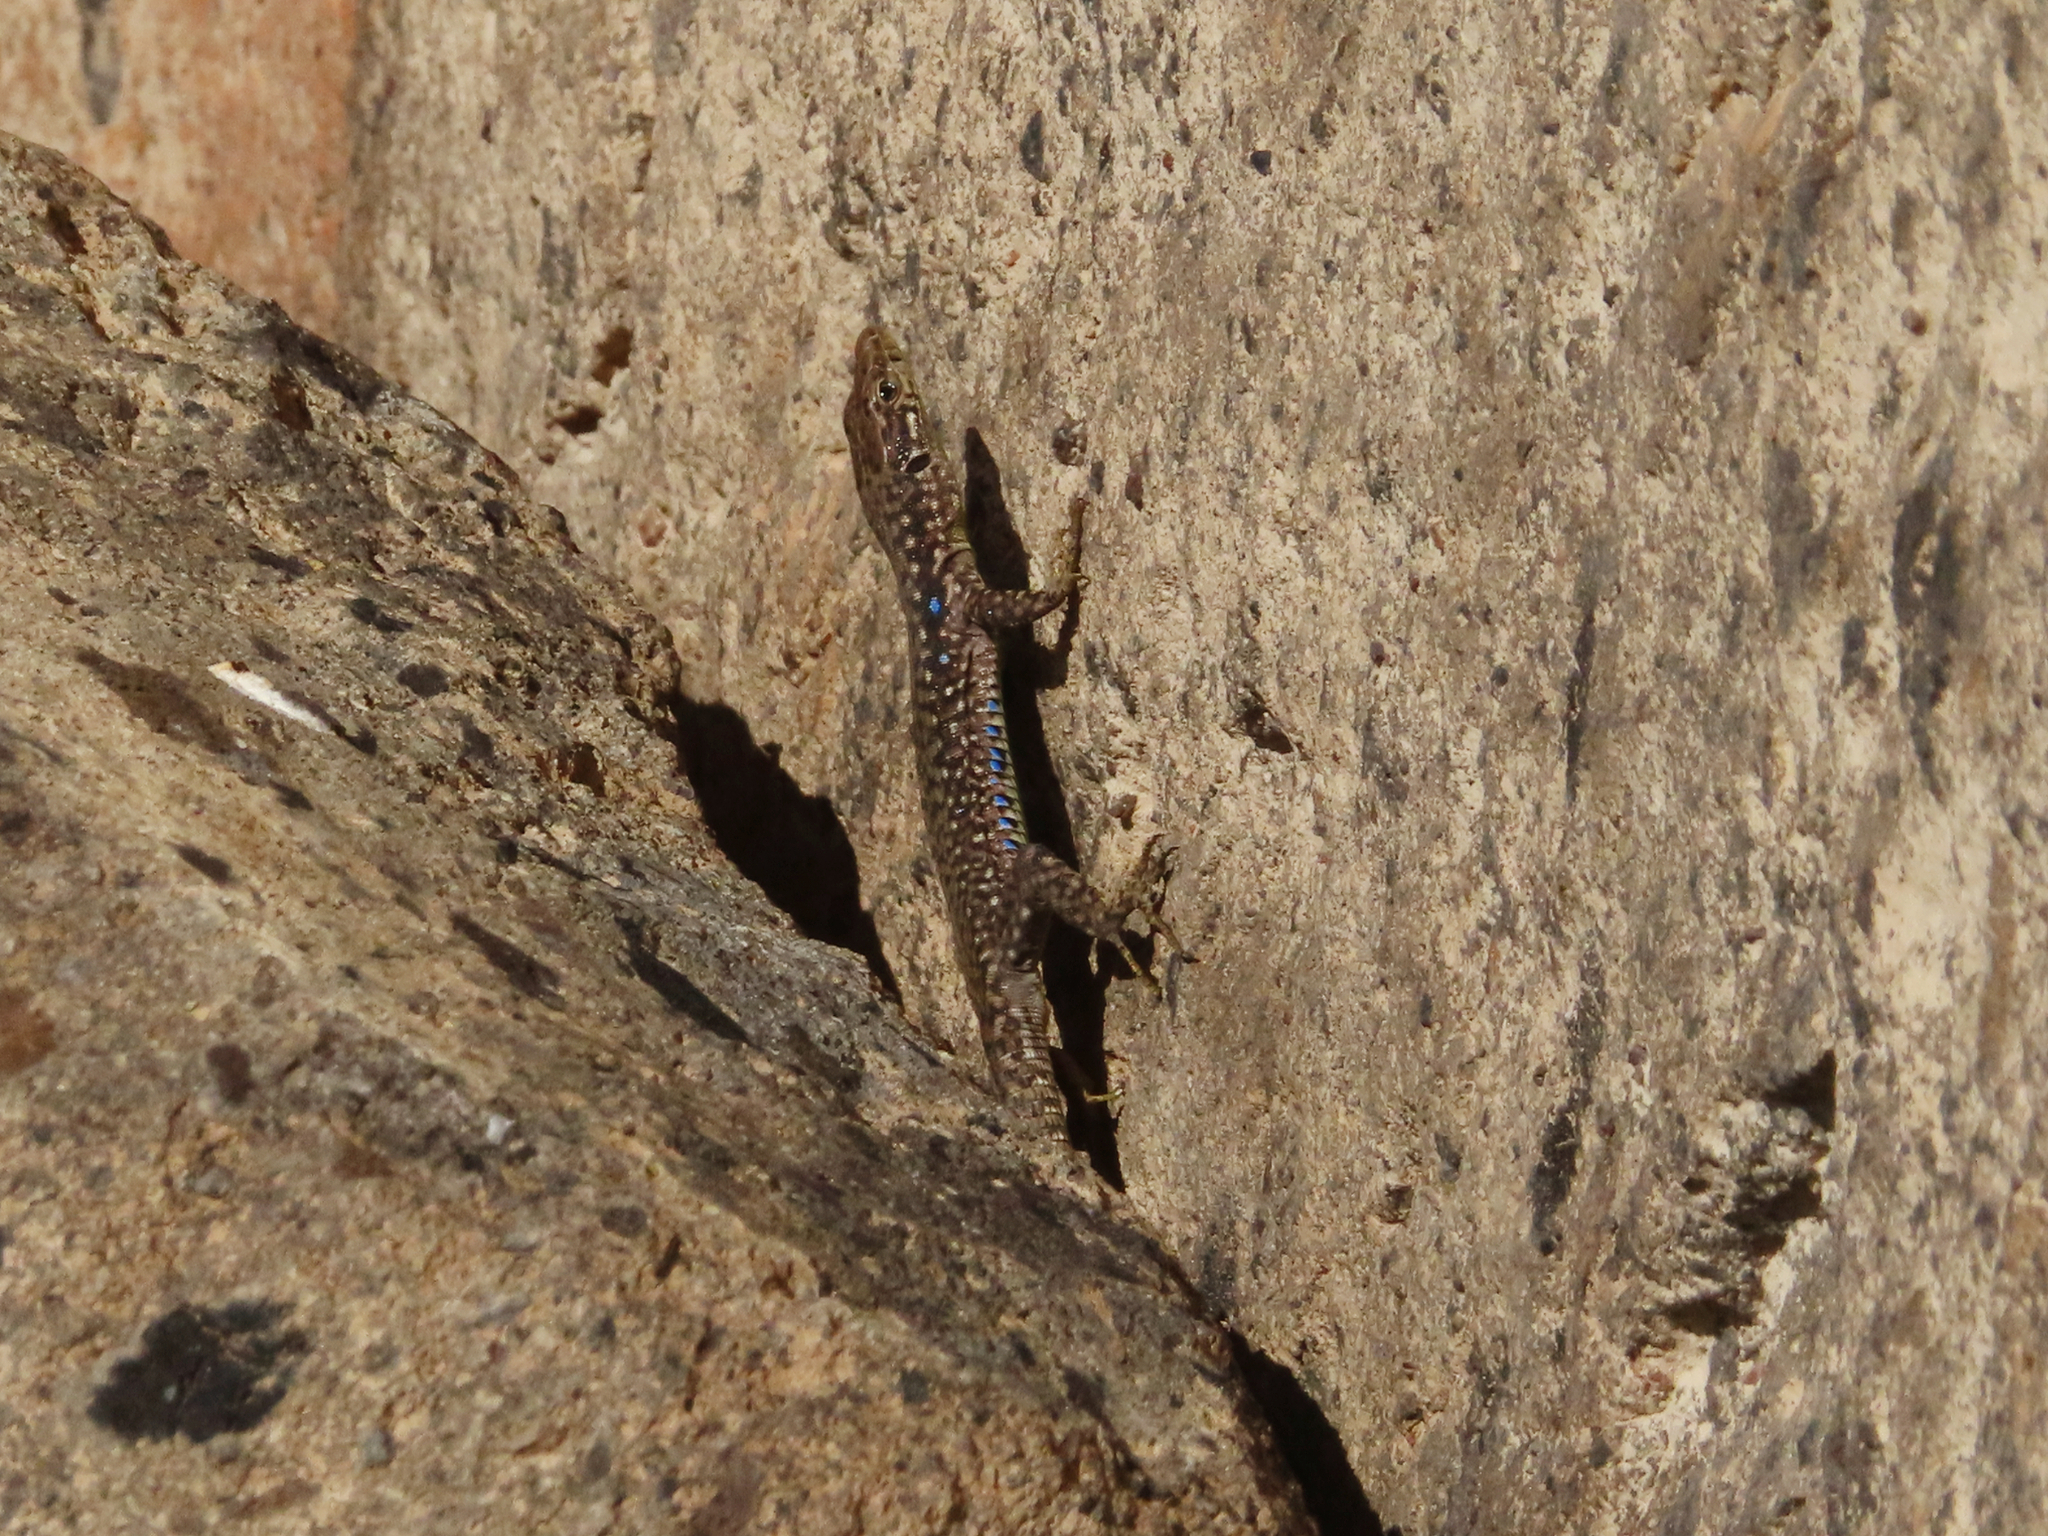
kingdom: Animalia
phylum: Chordata
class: Squamata
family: Lacertidae
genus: Darevskia
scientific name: Darevskia
